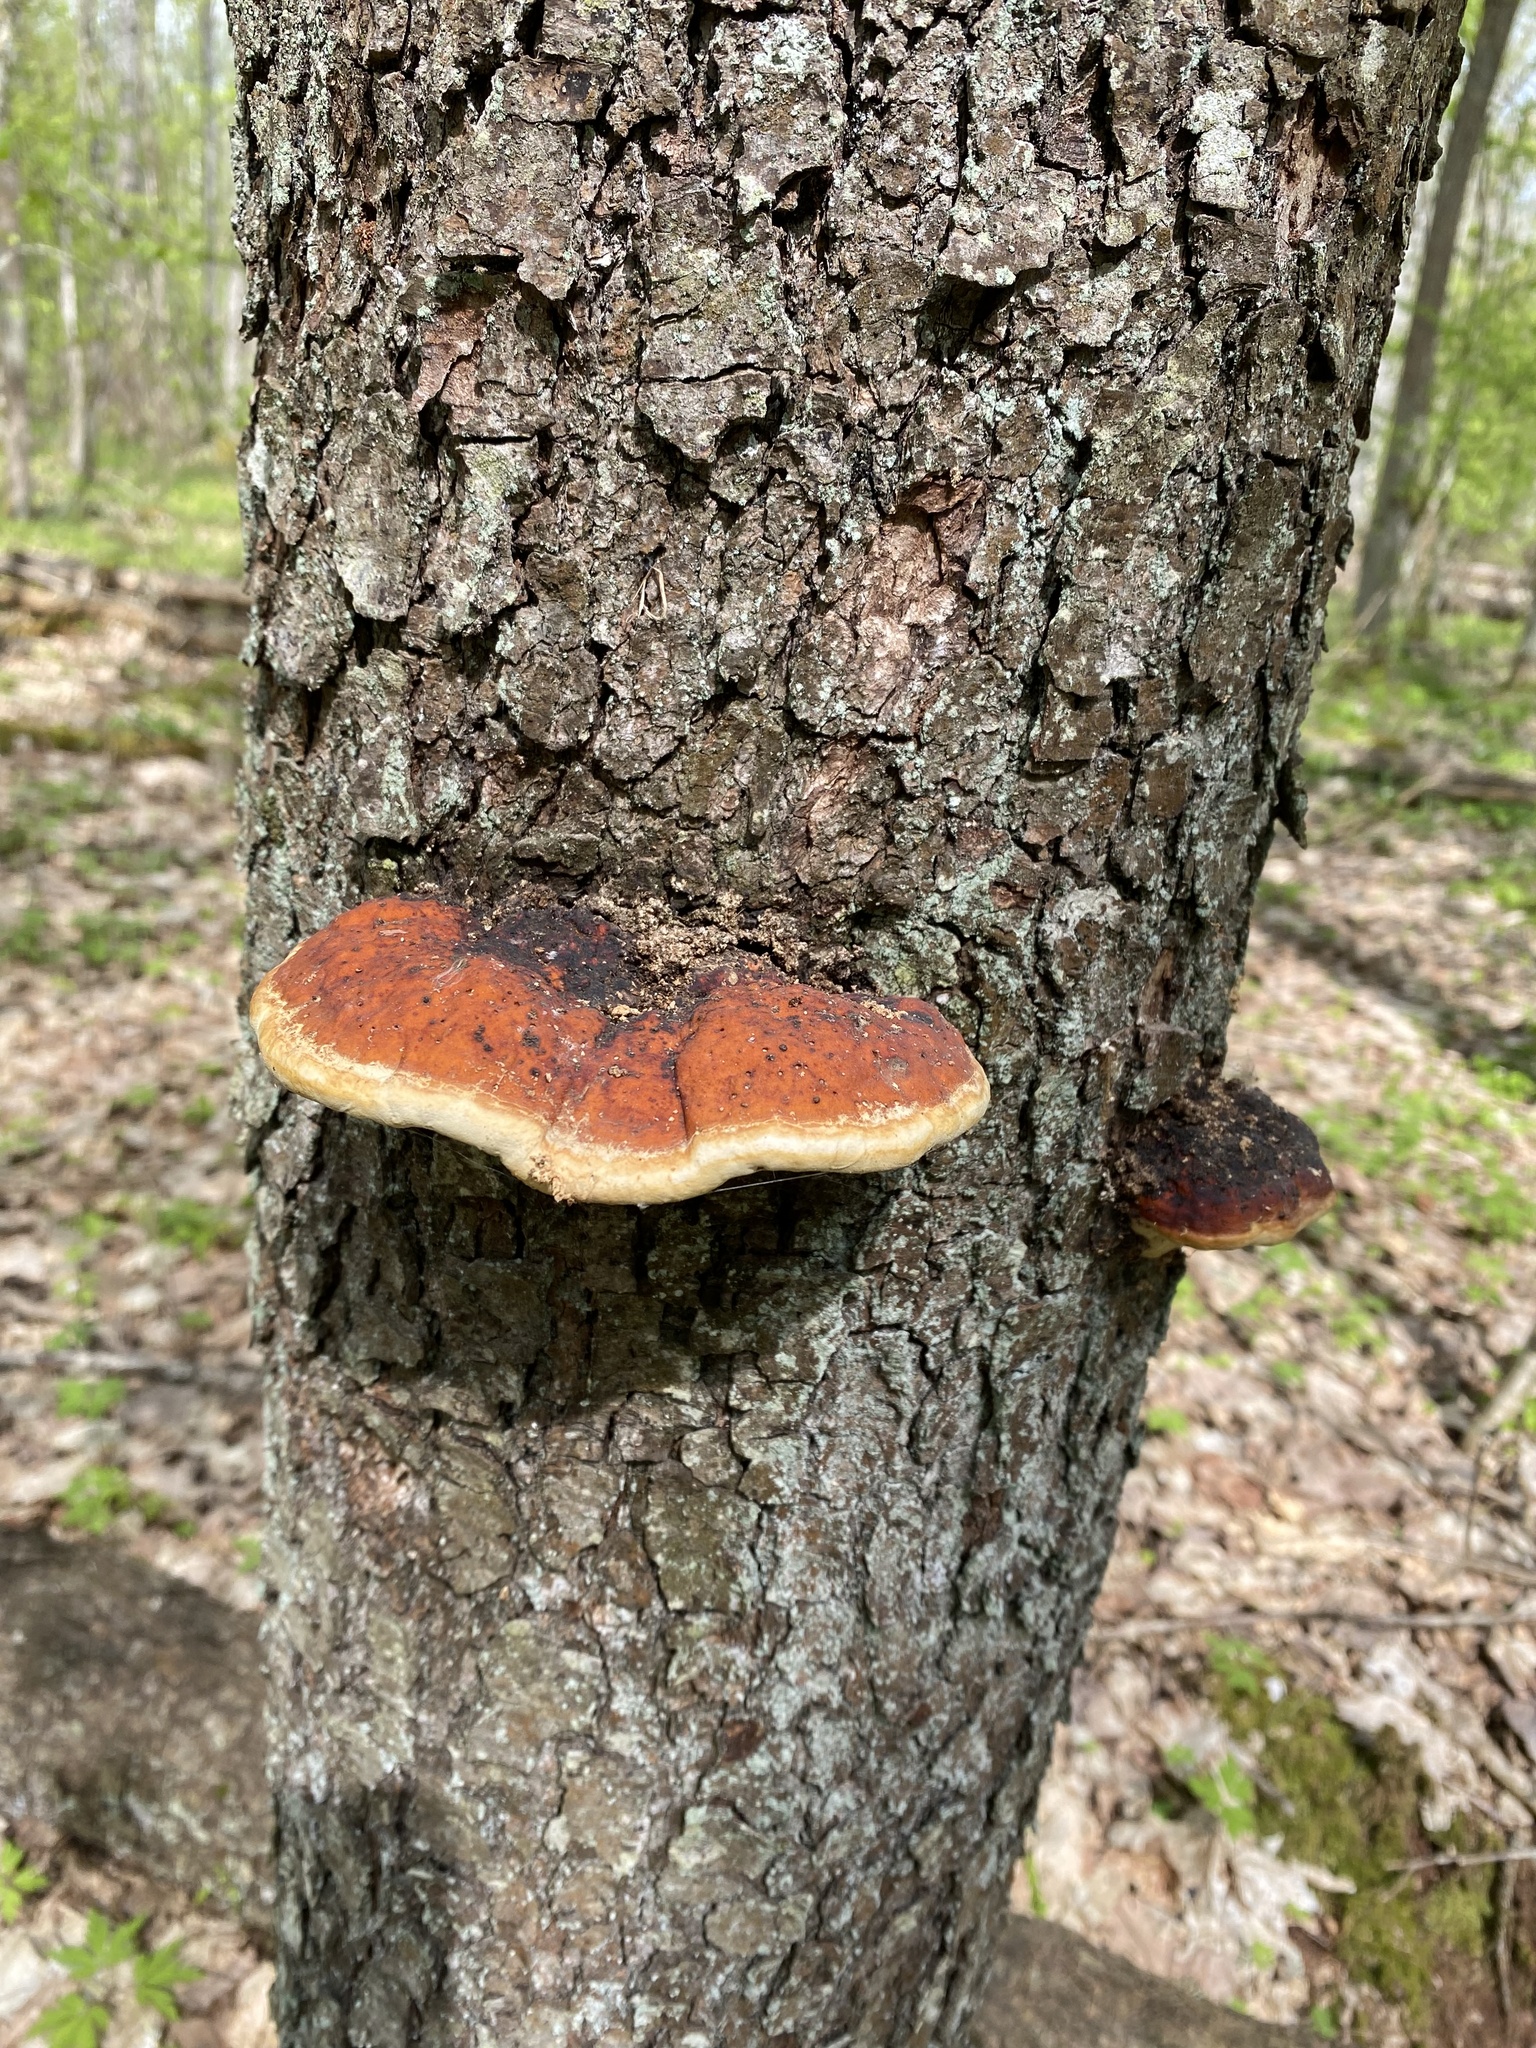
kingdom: Fungi
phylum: Basidiomycota
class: Agaricomycetes
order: Polyporales
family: Fomitopsidaceae
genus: Fomitopsis
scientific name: Fomitopsis pinicola
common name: Red-belted bracket
